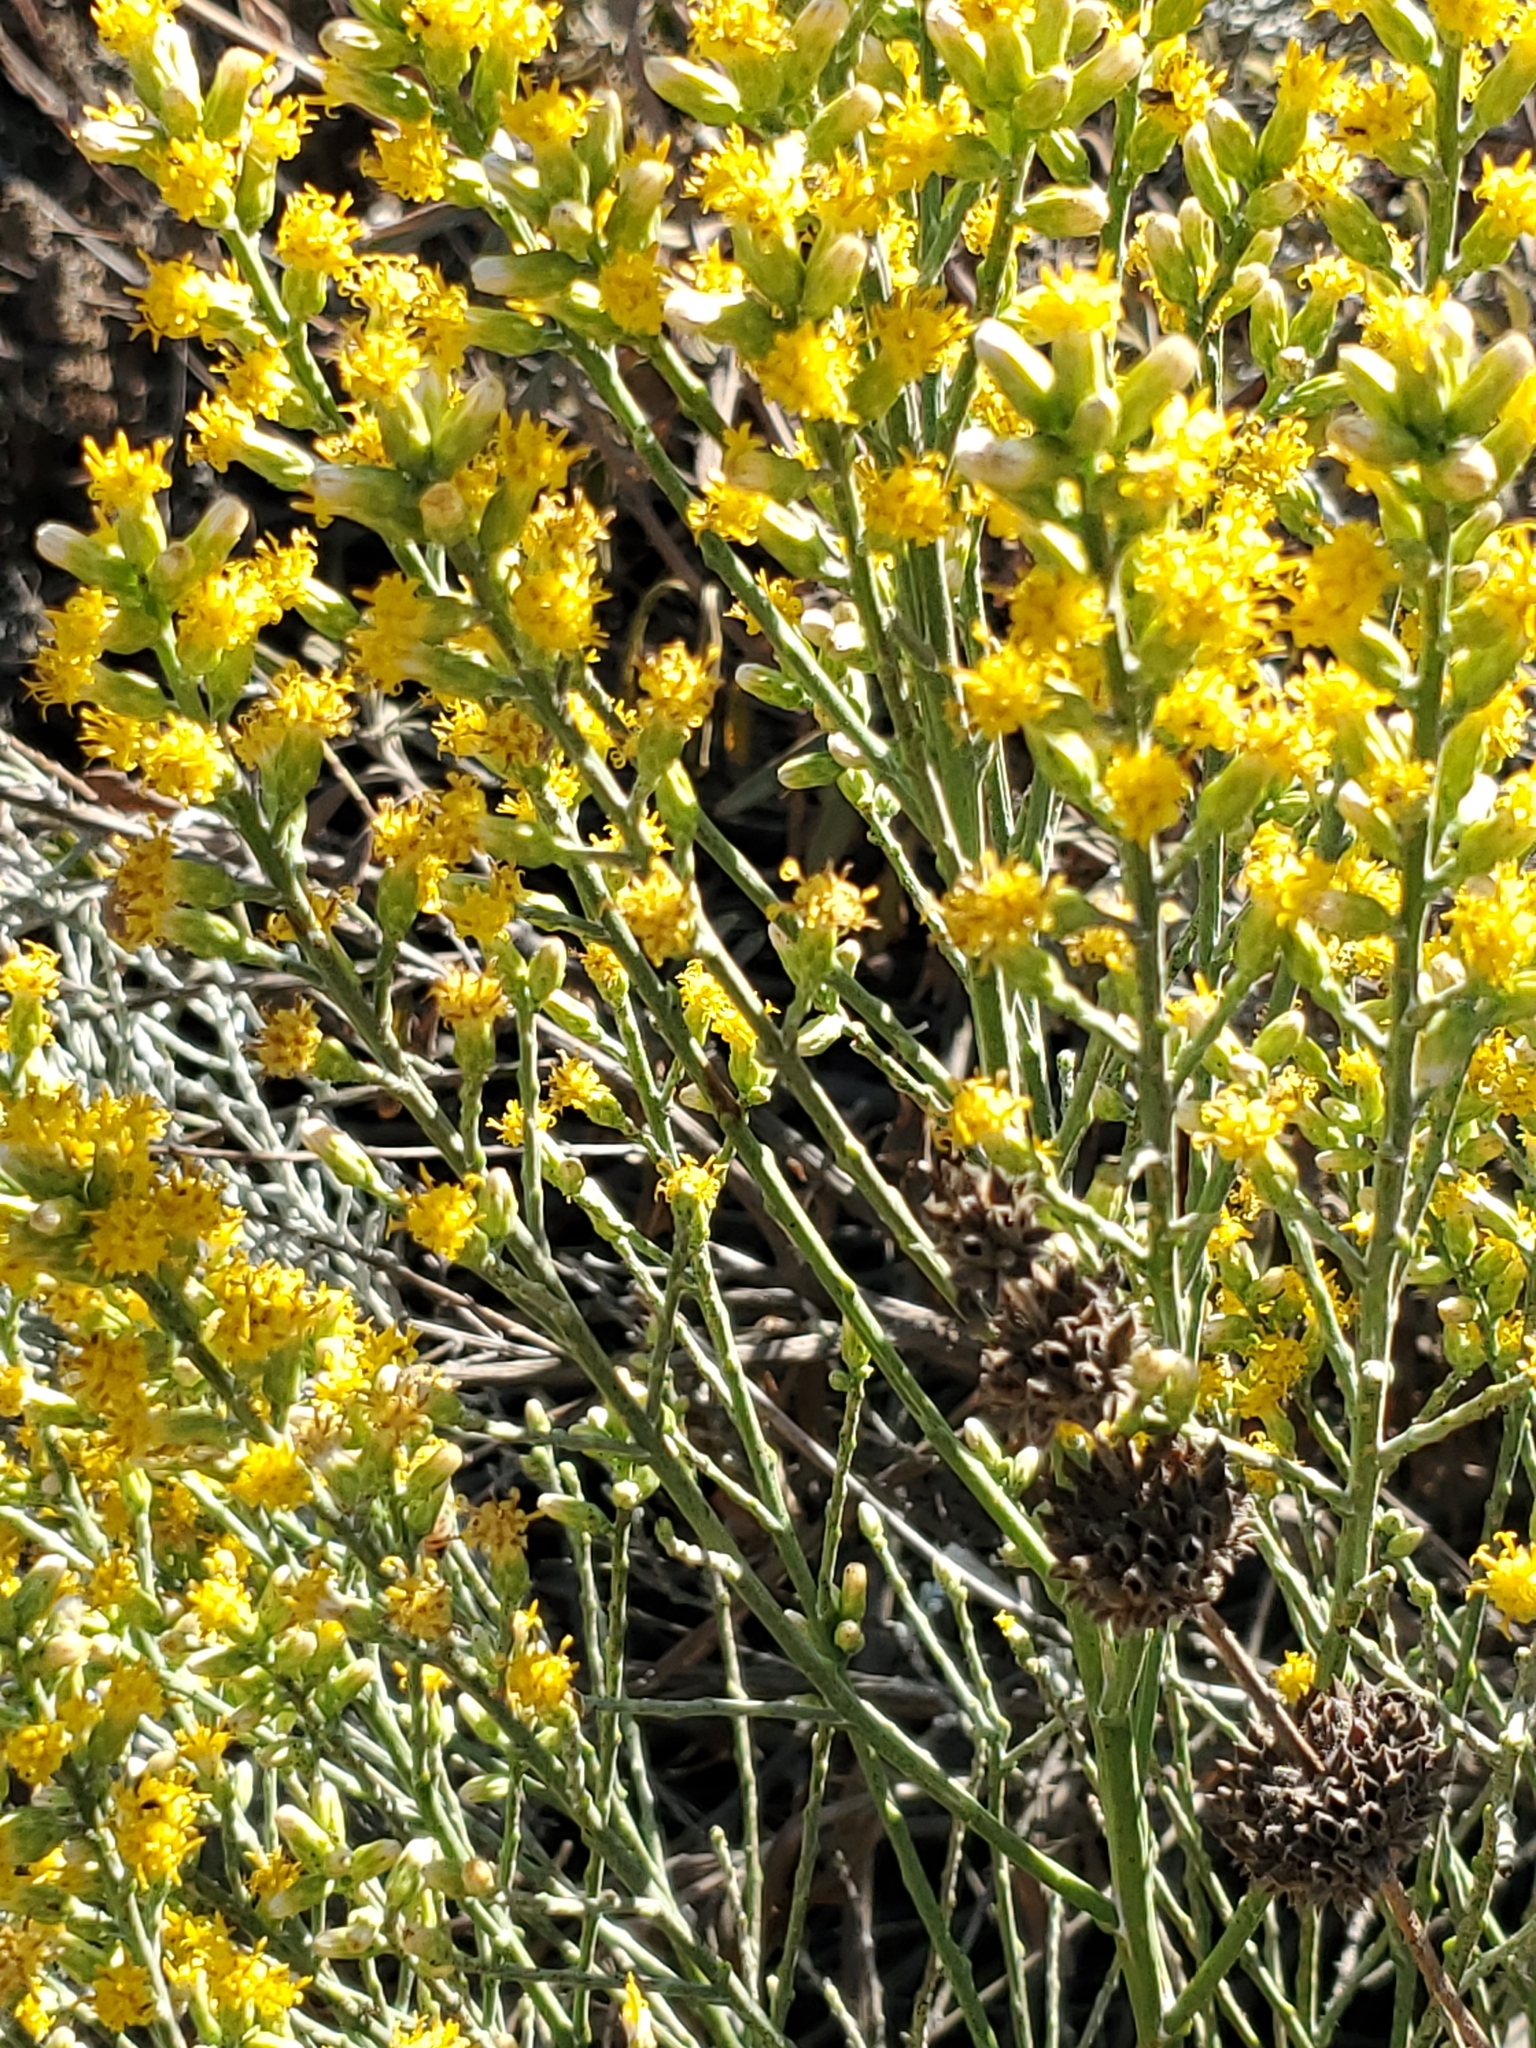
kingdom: Plantae
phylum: Tracheophyta
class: Magnoliopsida
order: Asterales
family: Asteraceae
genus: Lepidospartum
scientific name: Lepidospartum squamatum
